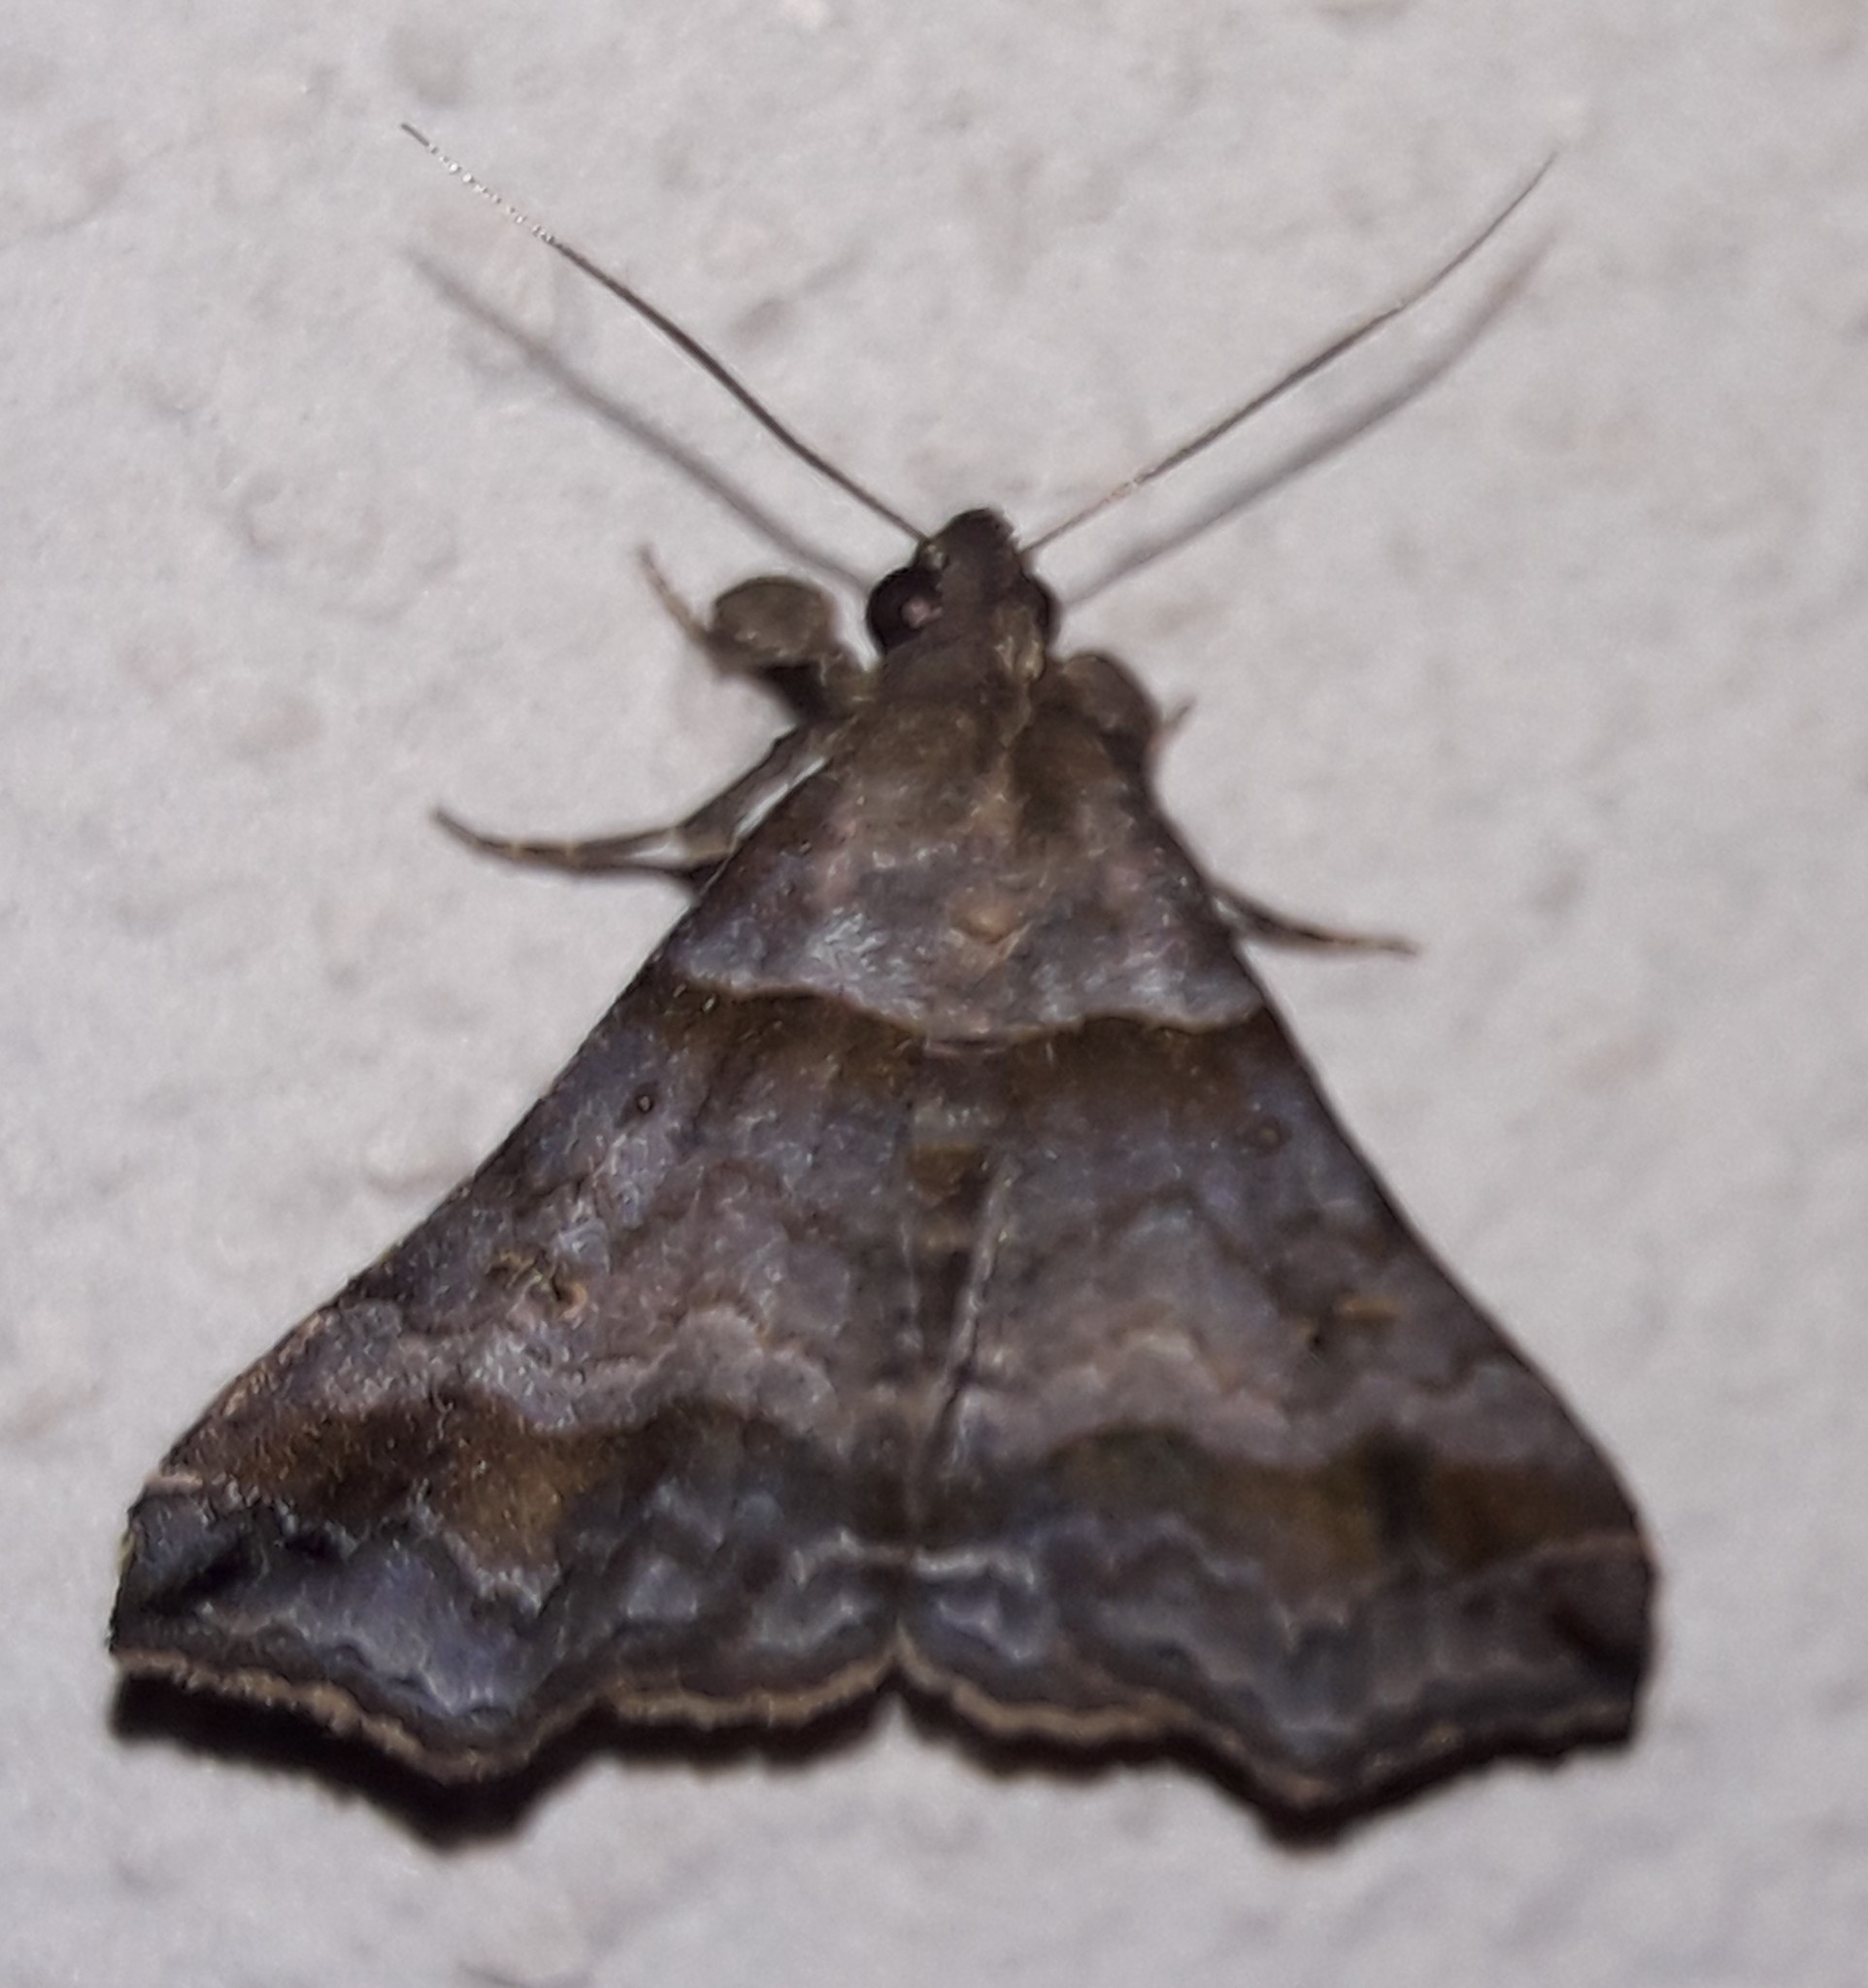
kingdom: Animalia
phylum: Arthropoda
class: Insecta
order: Lepidoptera
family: Erebidae
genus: Heterogramma
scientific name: Heterogramma circumflexalis
